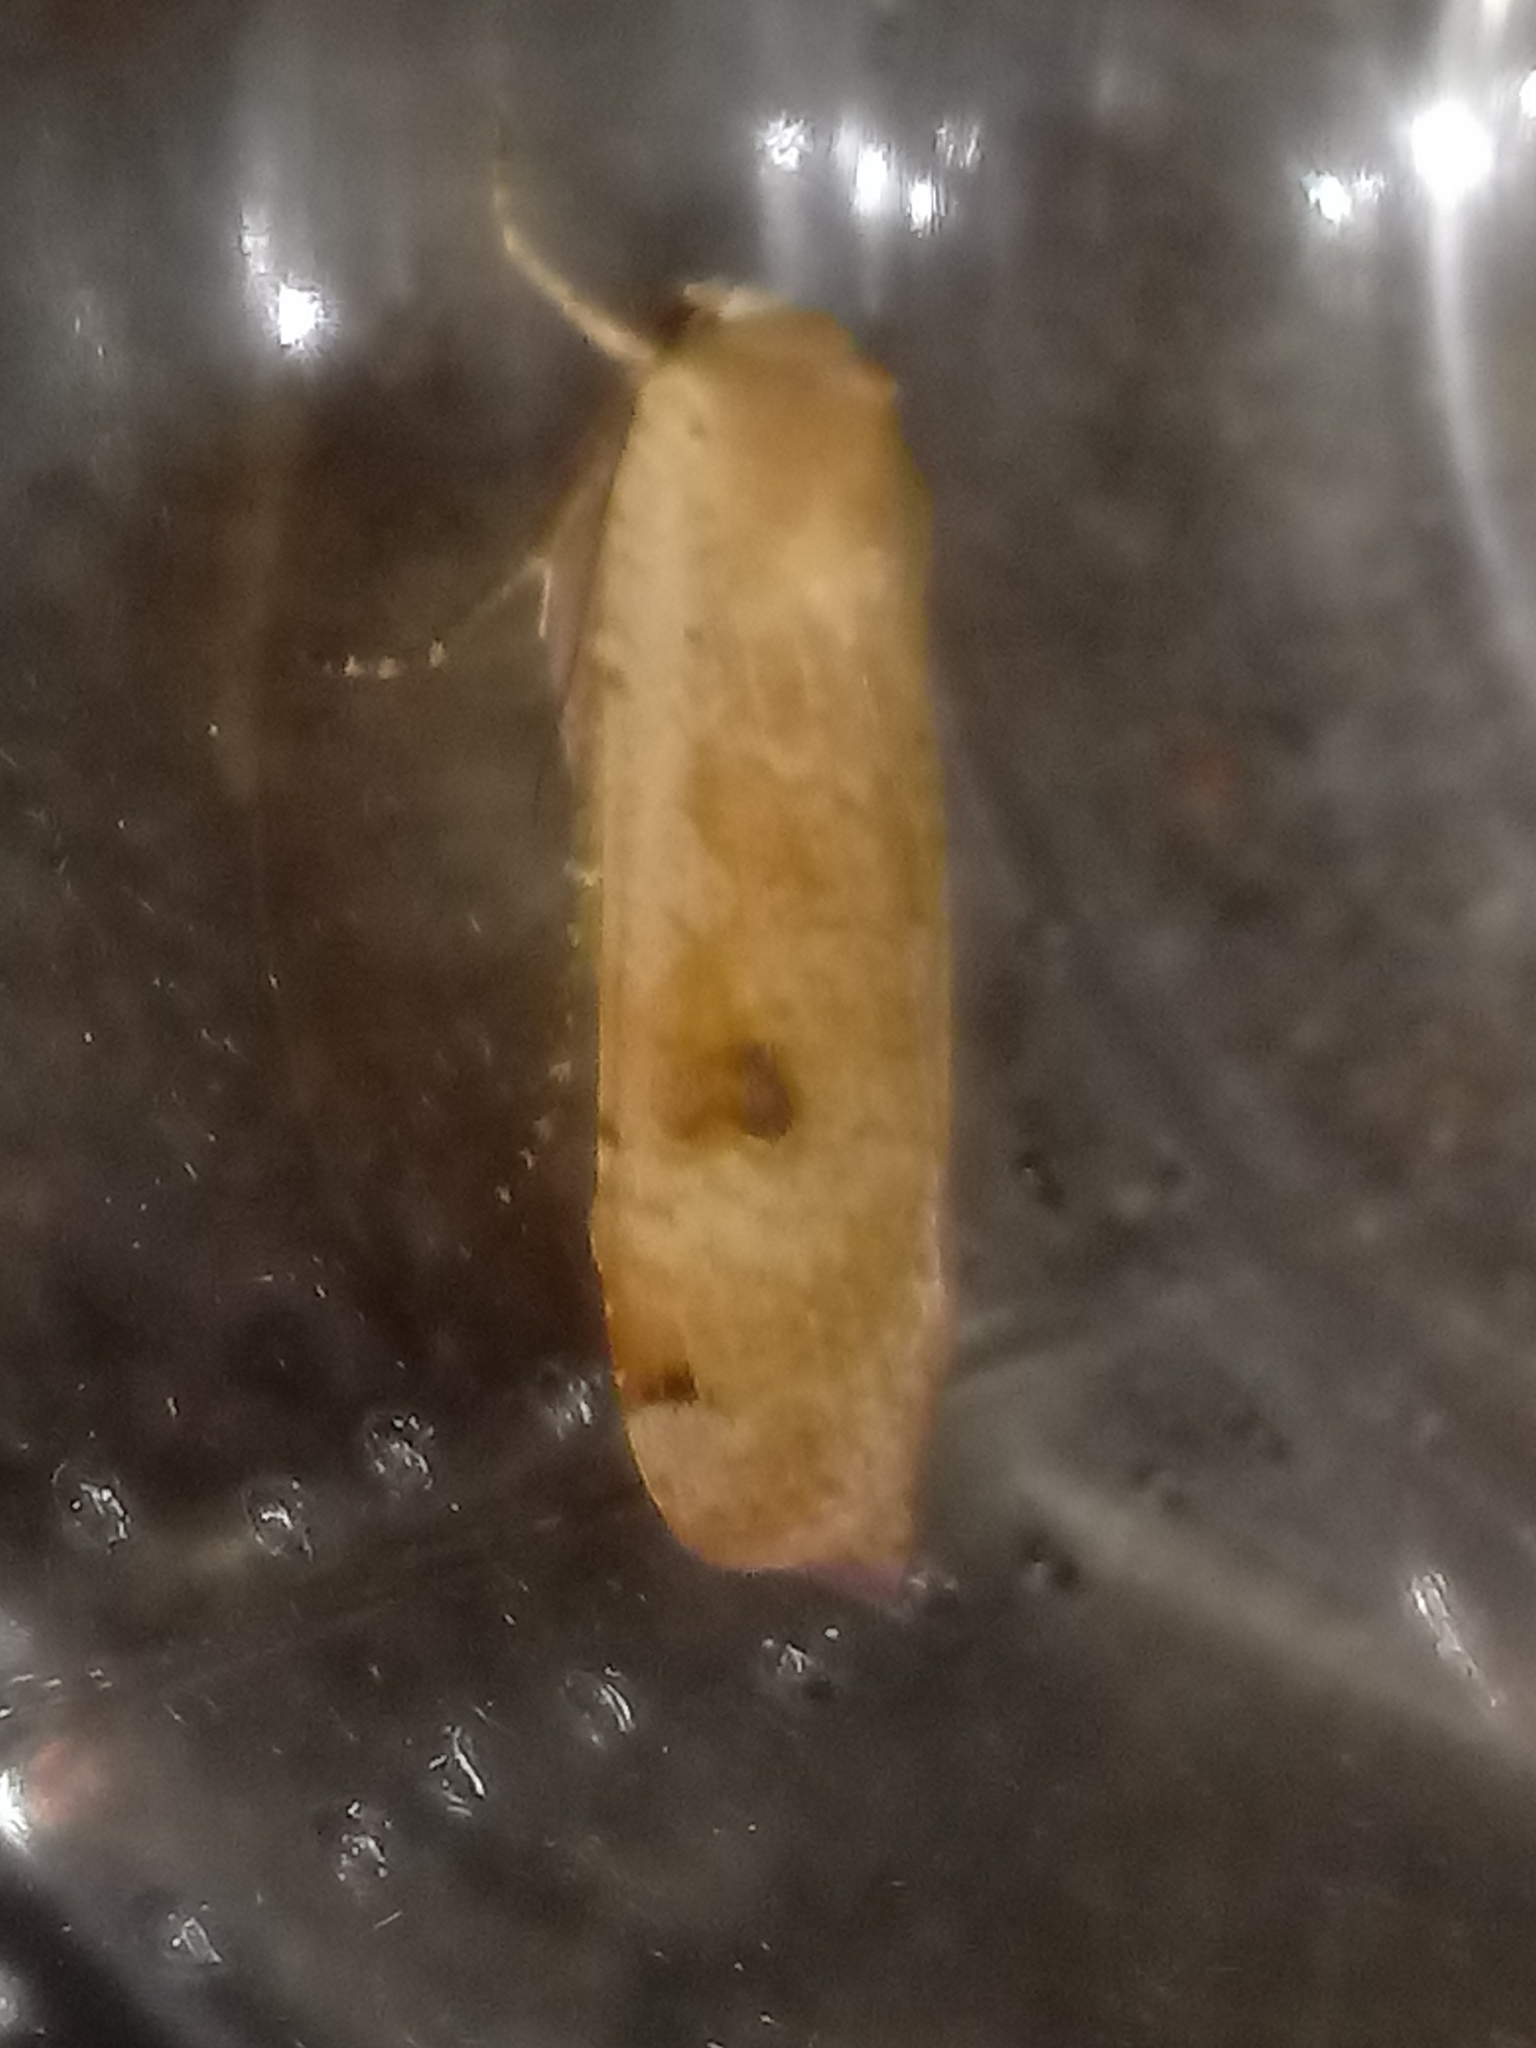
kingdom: Animalia
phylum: Arthropoda
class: Insecta
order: Lepidoptera
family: Noctuidae
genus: Noctua
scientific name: Noctua pronuba
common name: Large yellow underwing
